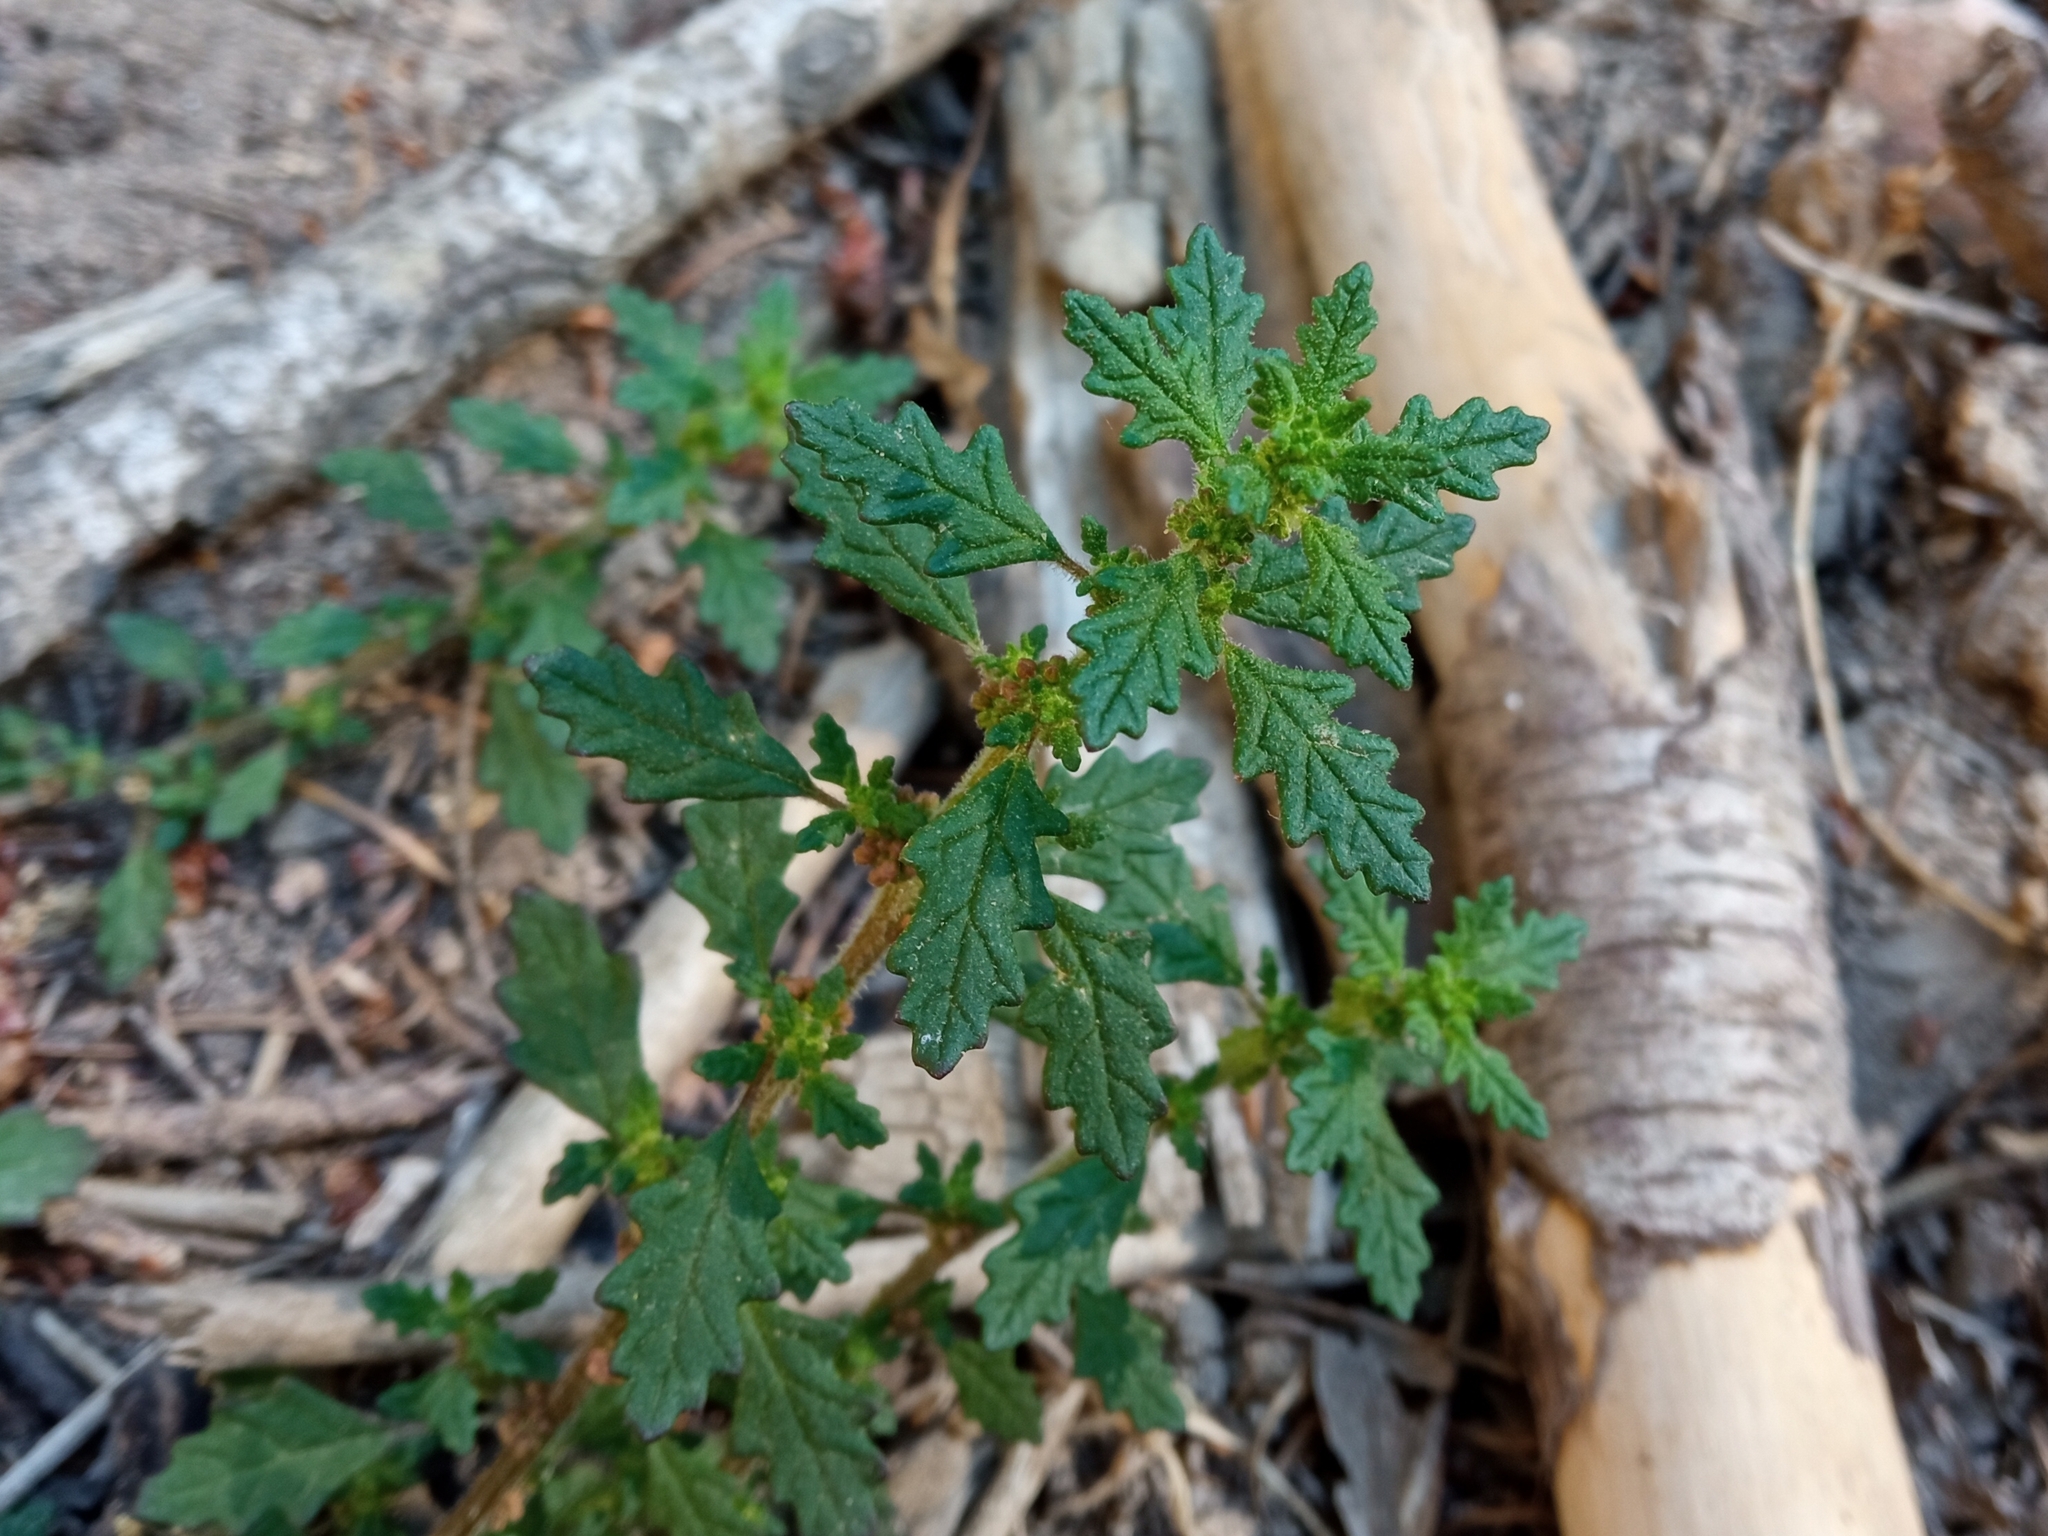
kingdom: Plantae
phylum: Tracheophyta
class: Magnoliopsida
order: Caryophyllales
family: Amaranthaceae
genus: Dysphania
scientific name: Dysphania pumilio
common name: Clammy goosefoot
